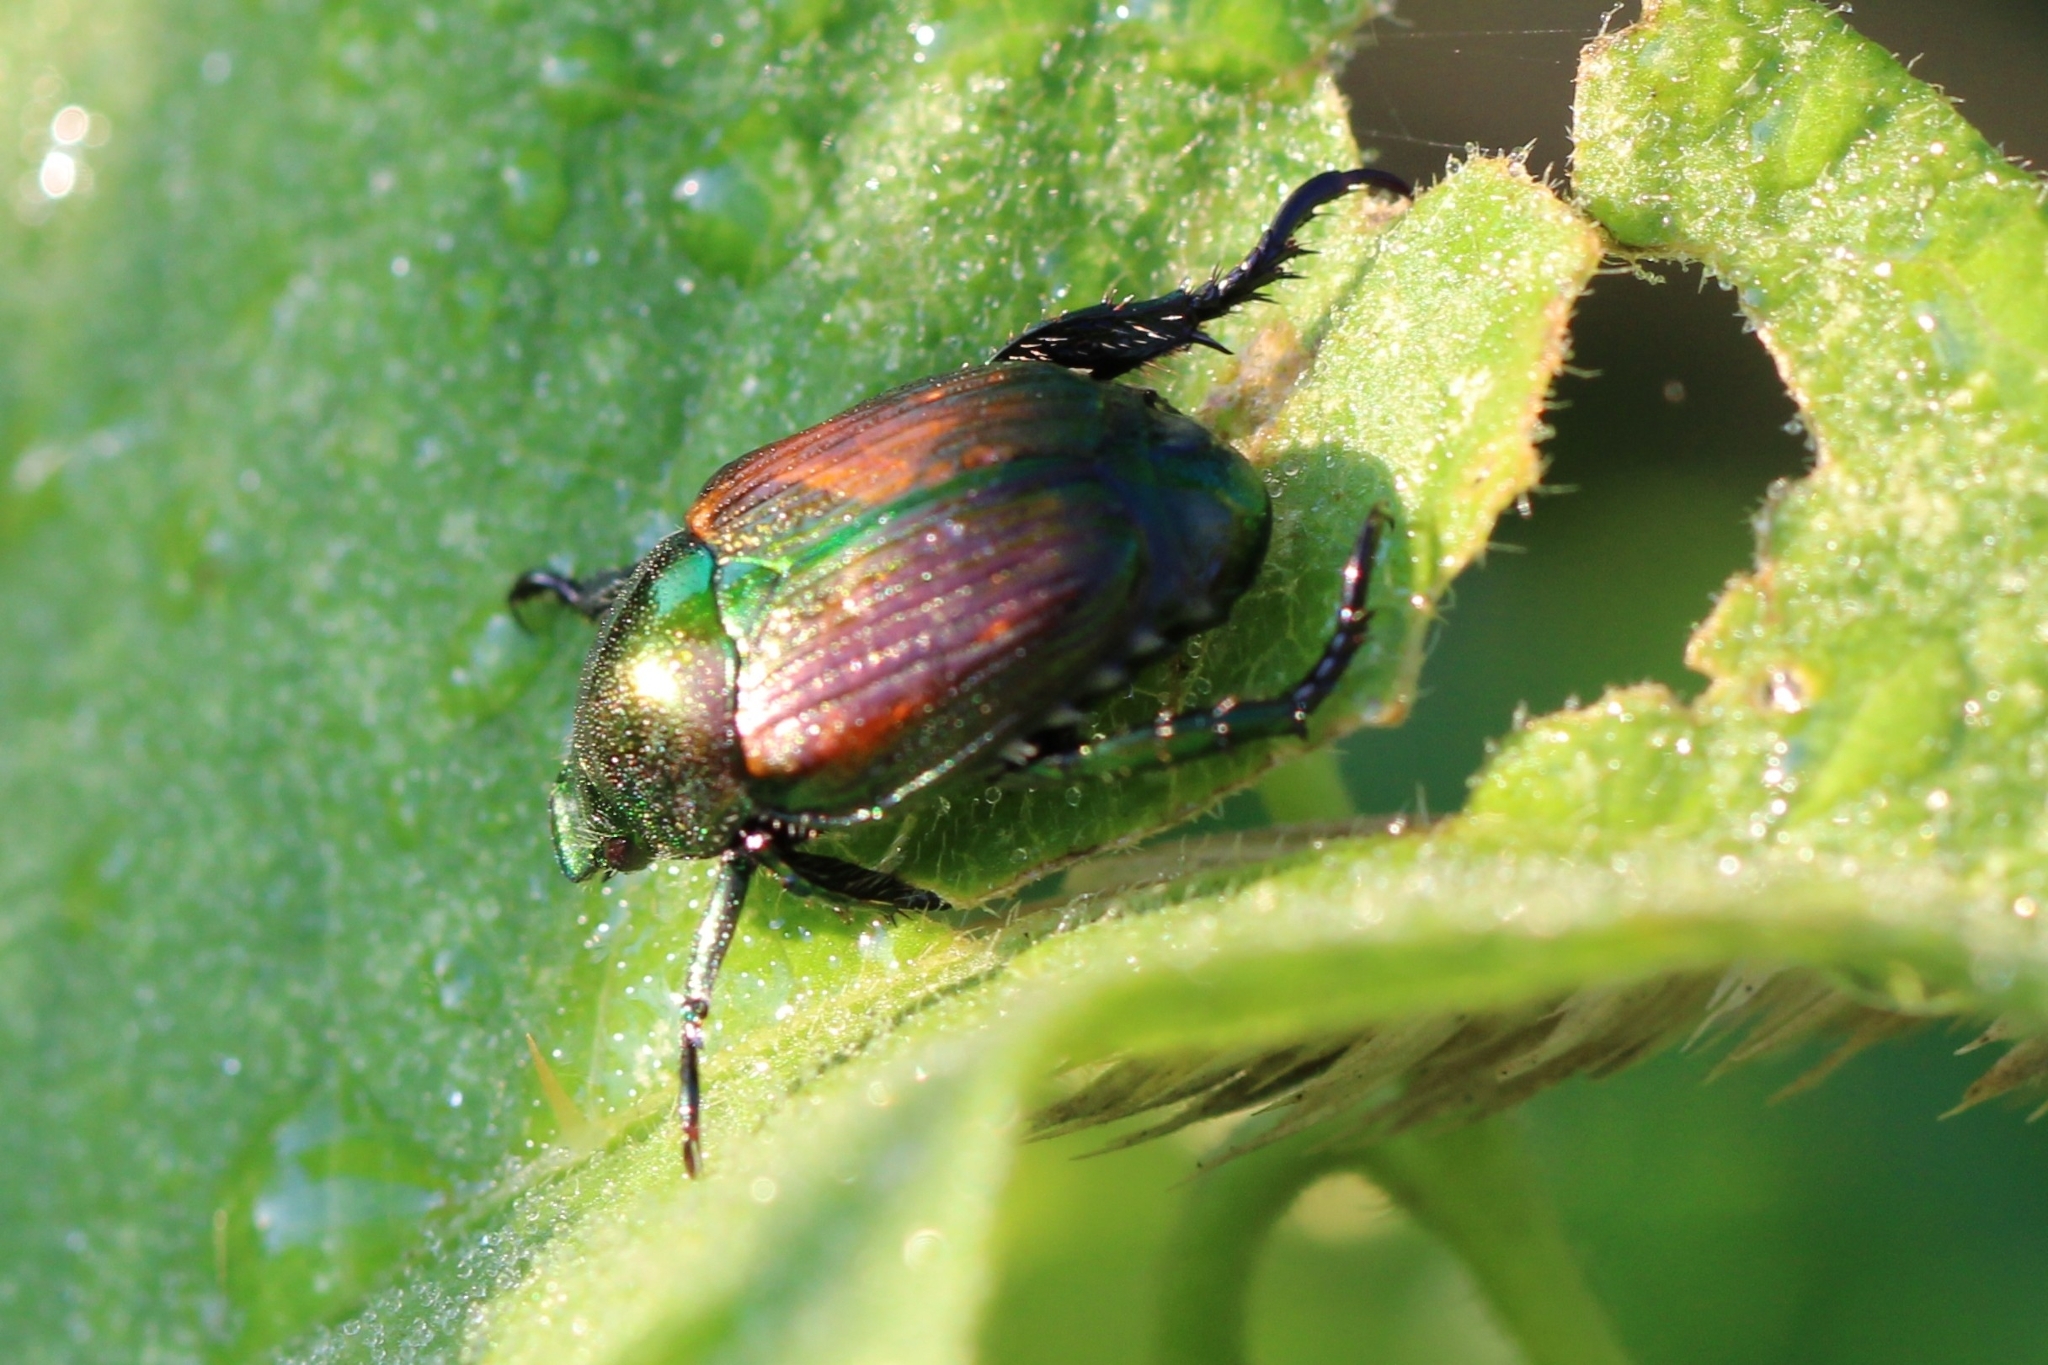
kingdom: Animalia
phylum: Arthropoda
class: Insecta
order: Coleoptera
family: Scarabaeidae
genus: Popillia
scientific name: Popillia japonica
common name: Japanese beetle
